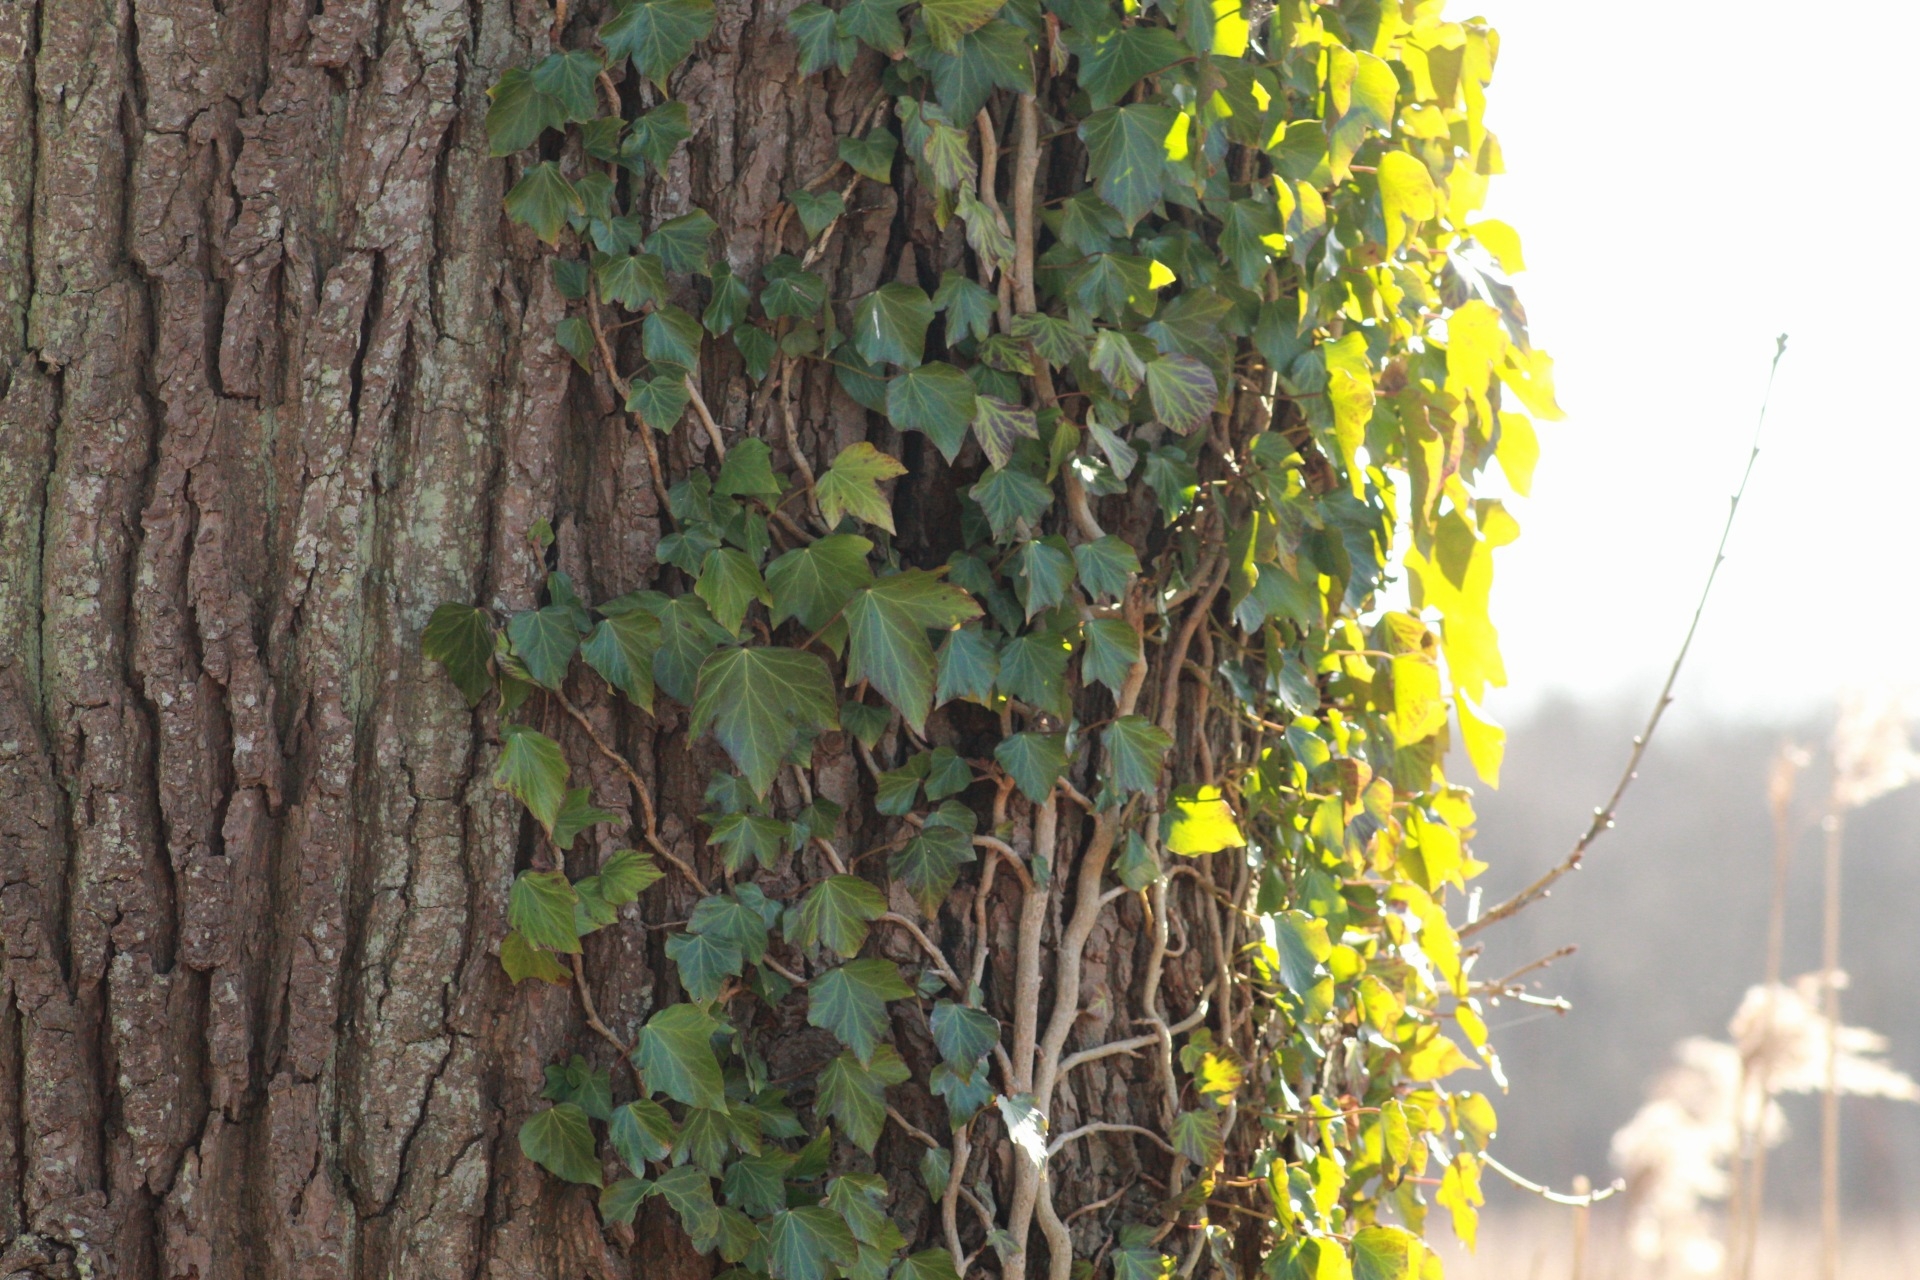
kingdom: Plantae
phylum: Tracheophyta
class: Magnoliopsida
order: Apiales
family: Araliaceae
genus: Hedera
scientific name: Hedera helix
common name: Ivy
